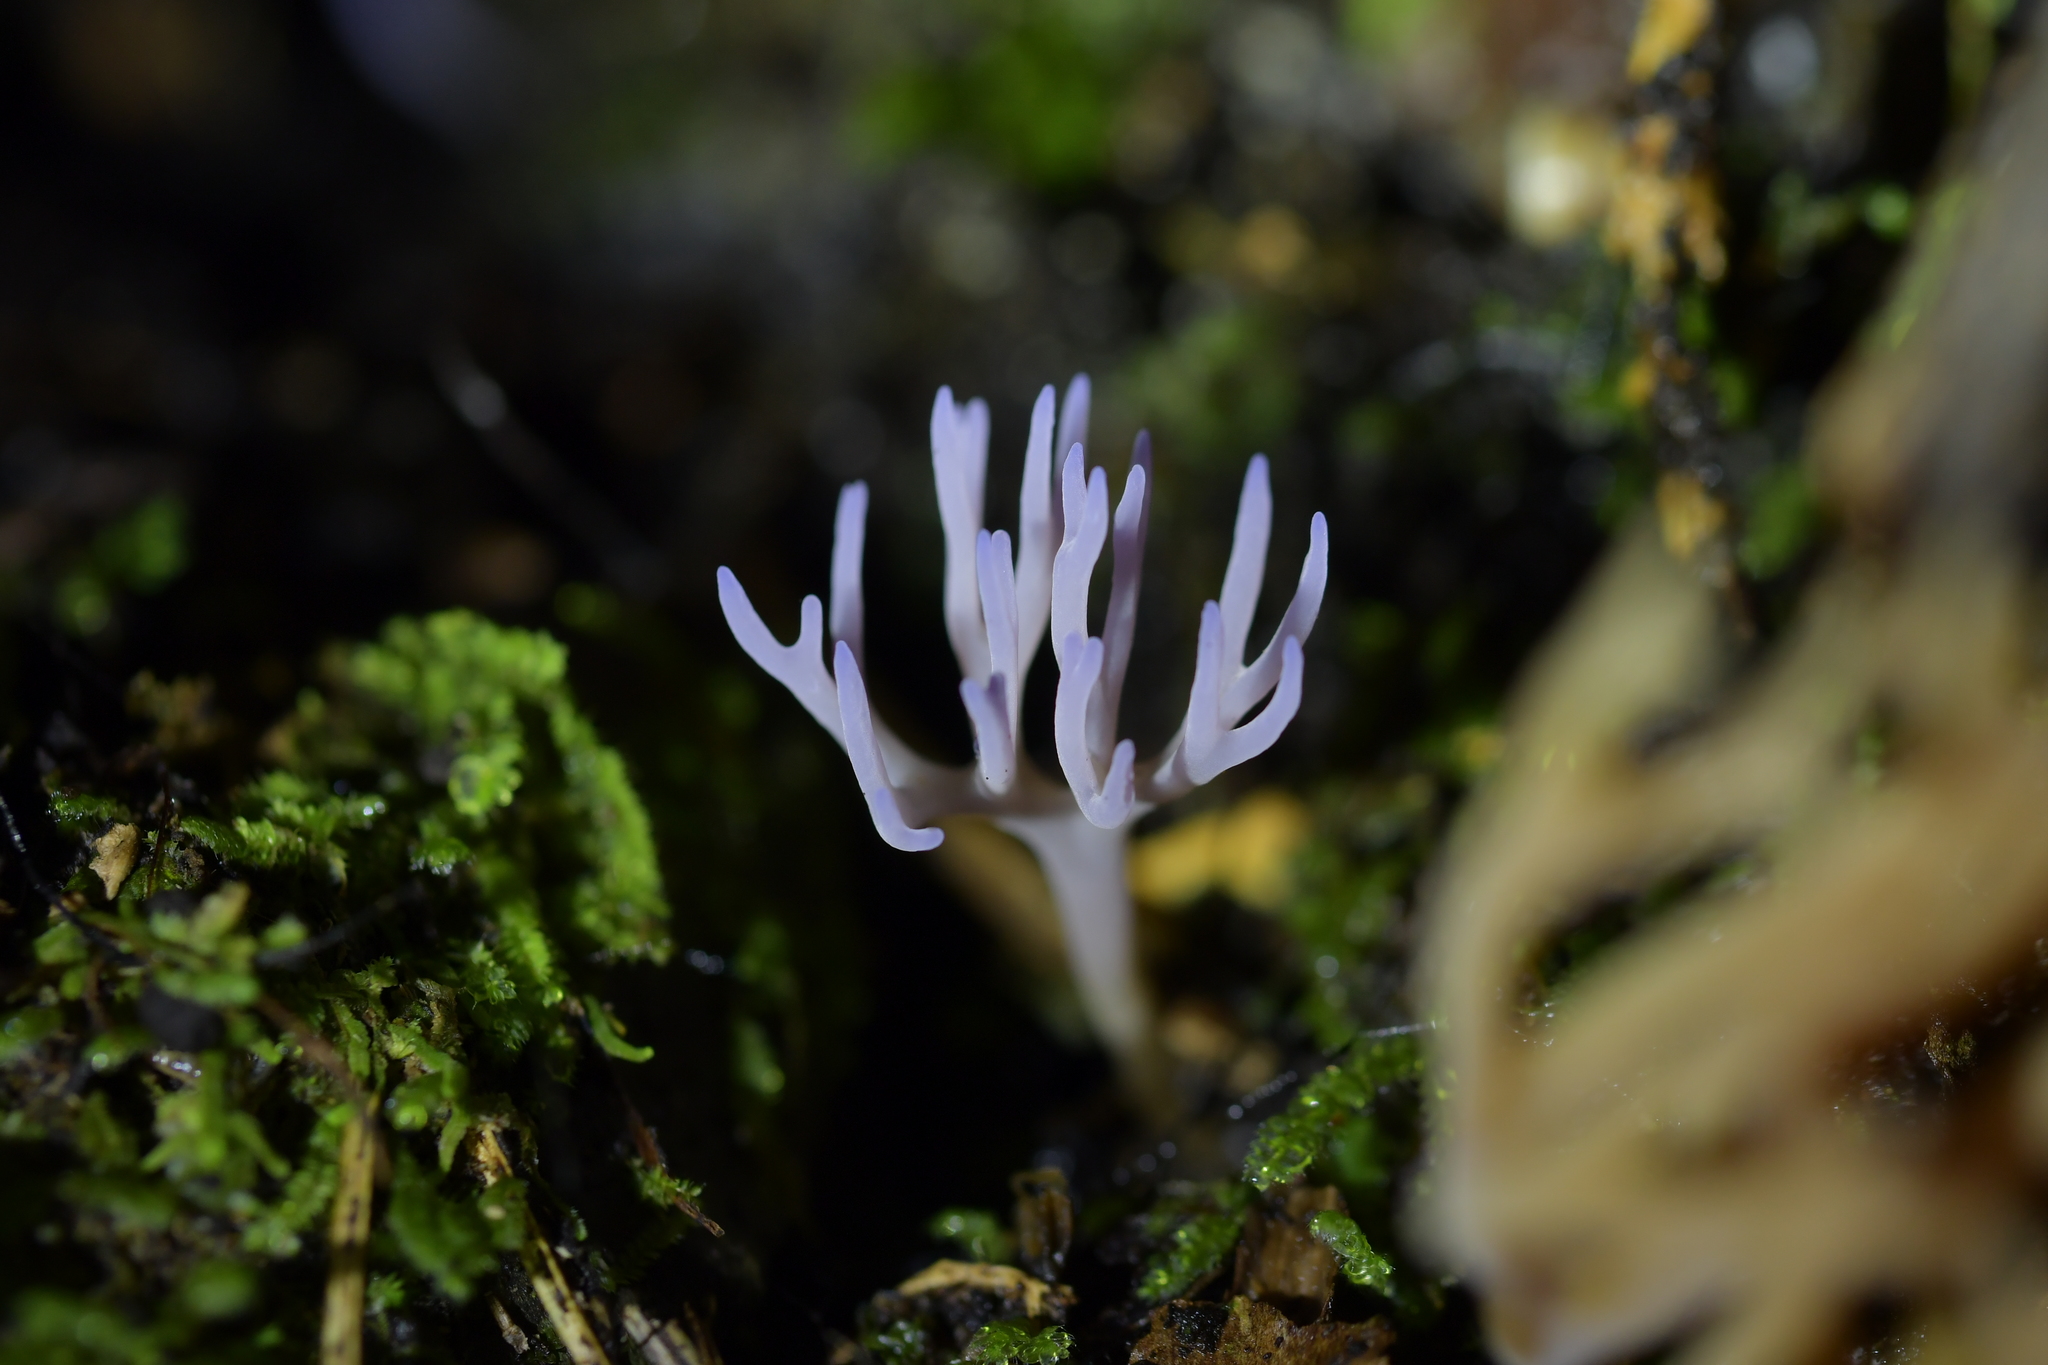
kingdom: Fungi
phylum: Basidiomycota
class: Agaricomycetes
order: Agaricales
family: Clavariaceae
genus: Ramariopsis
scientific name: Ramariopsis pulchella
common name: Lilac coral
